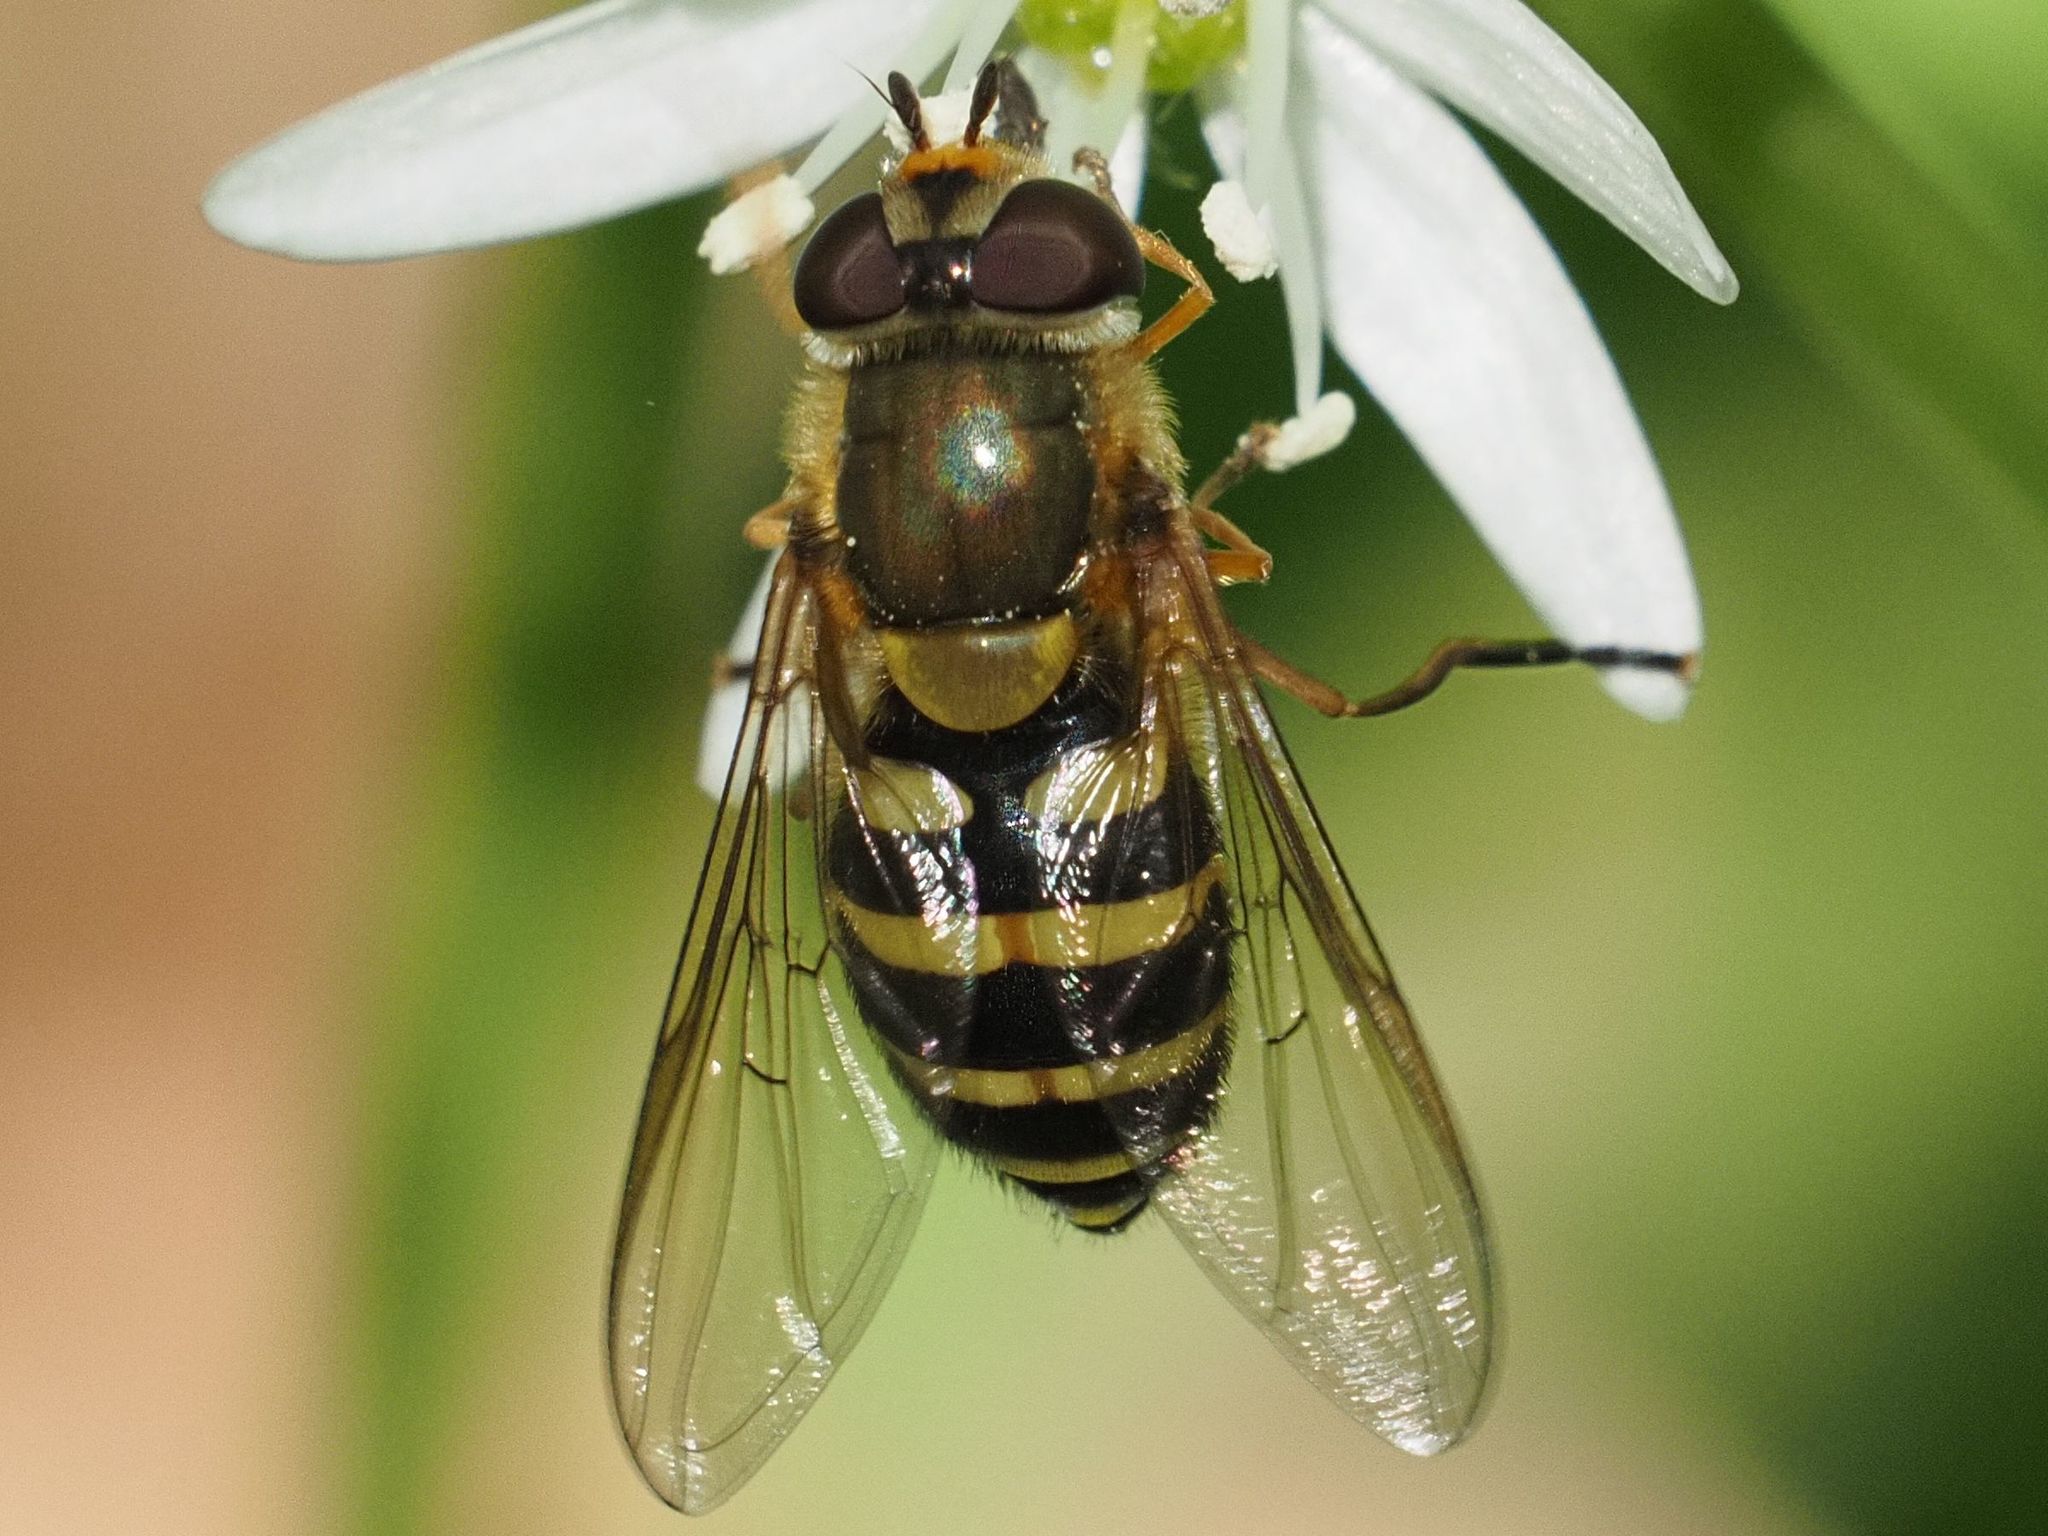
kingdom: Animalia
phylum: Arthropoda
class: Insecta
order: Diptera
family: Syrphidae
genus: Syrphus
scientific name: Syrphus
